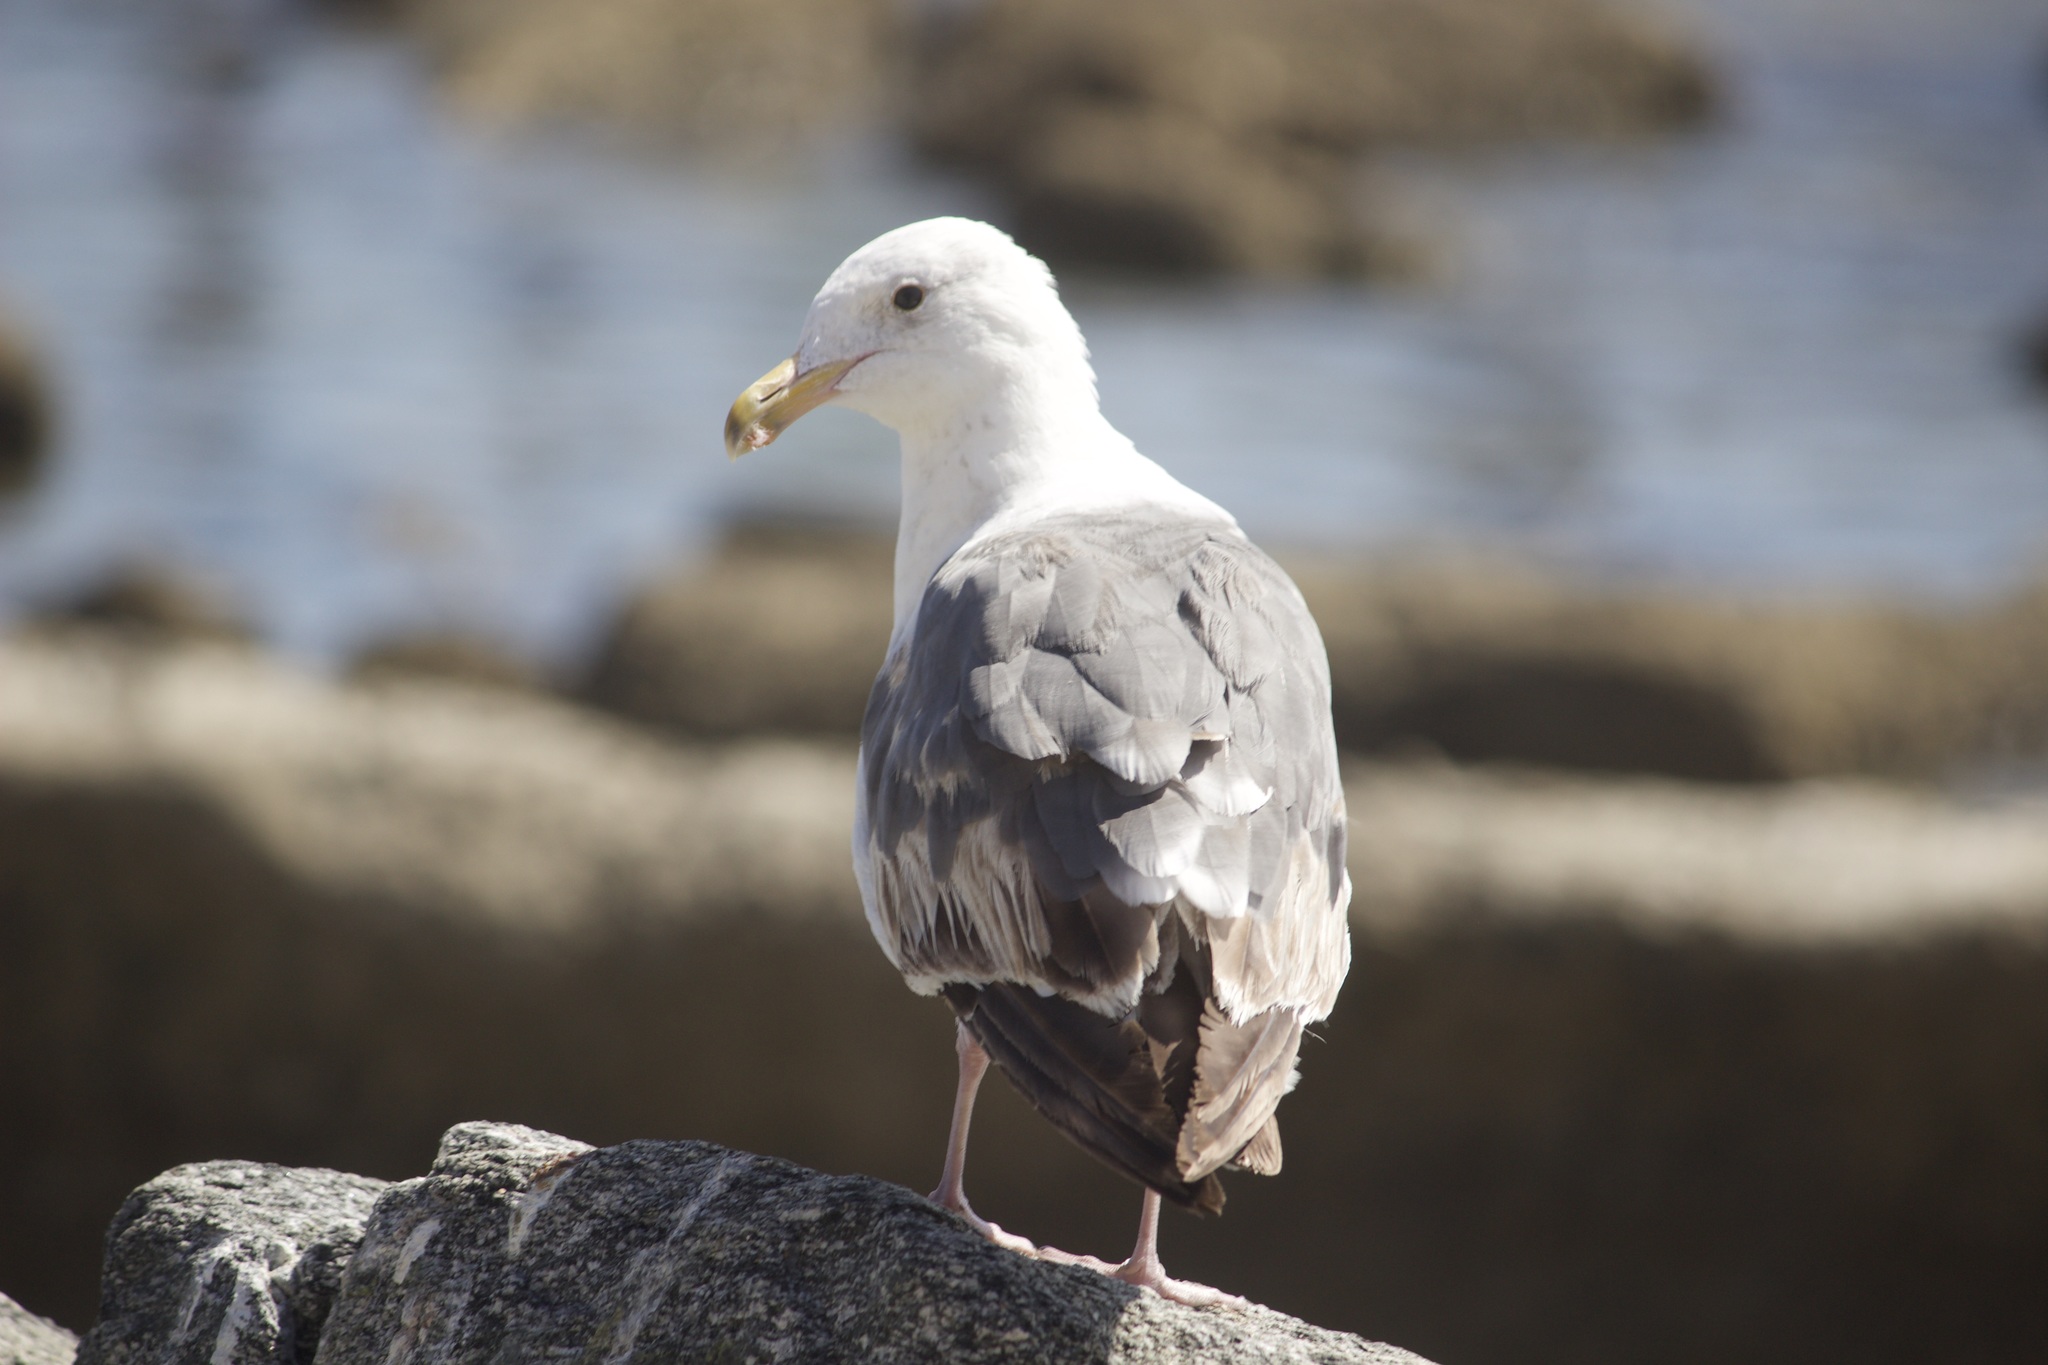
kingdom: Animalia
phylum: Chordata
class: Aves
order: Charadriiformes
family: Laridae
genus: Larus
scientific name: Larus occidentalis
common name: Western gull
